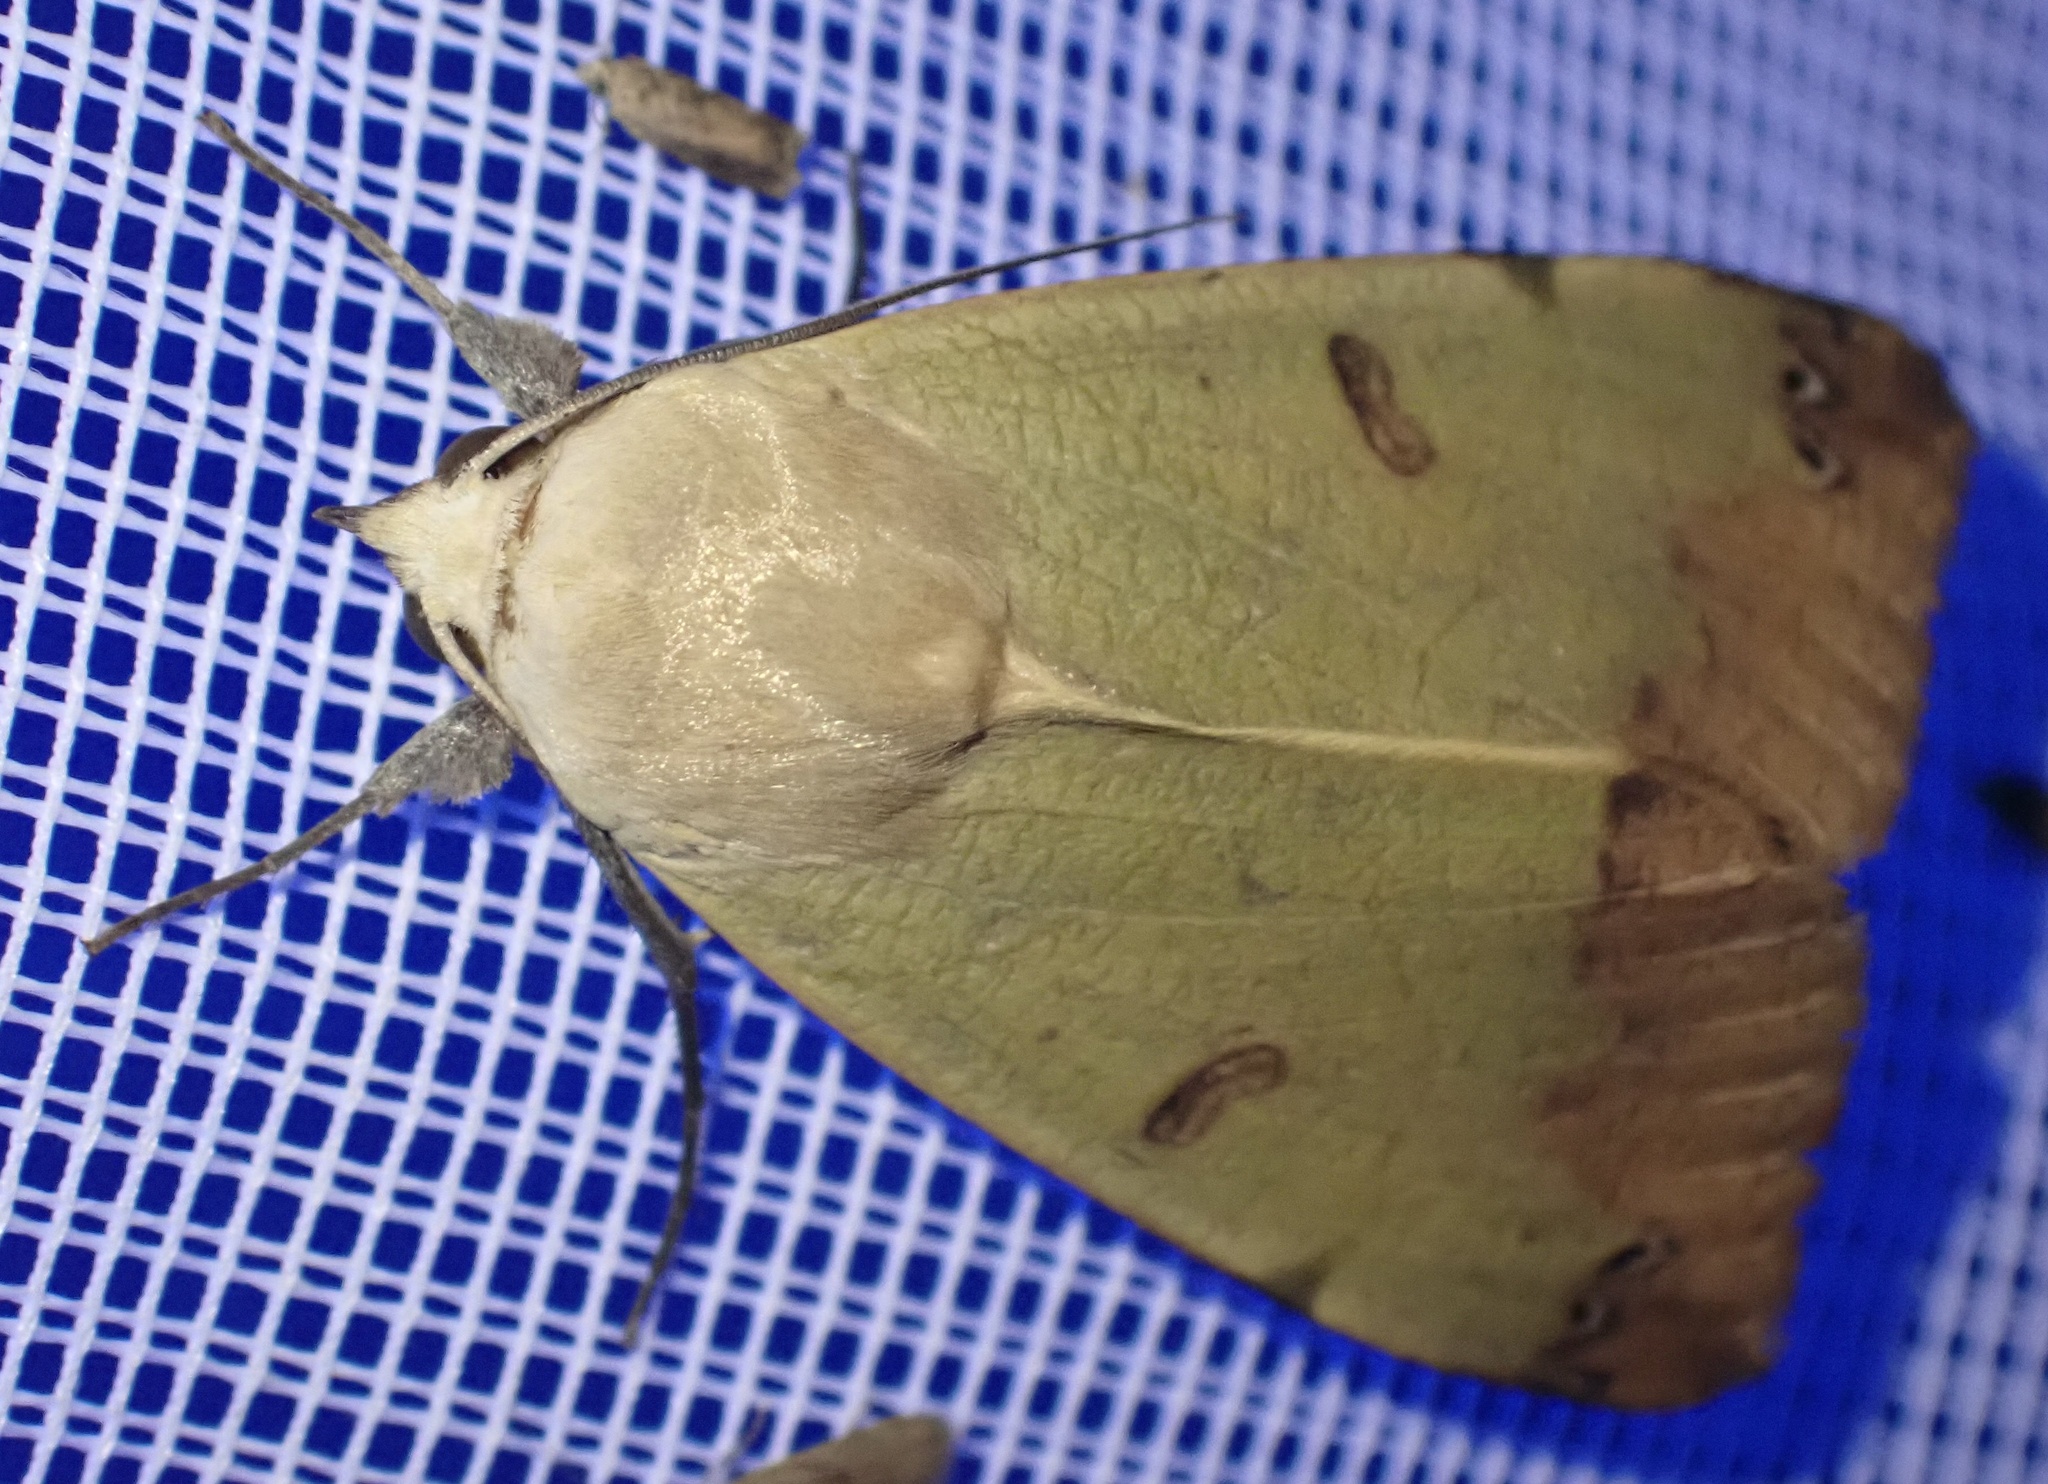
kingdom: Animalia
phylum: Arthropoda
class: Insecta
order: Lepidoptera
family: Erebidae
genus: Ophiusa
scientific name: Ophiusa tirhaca
